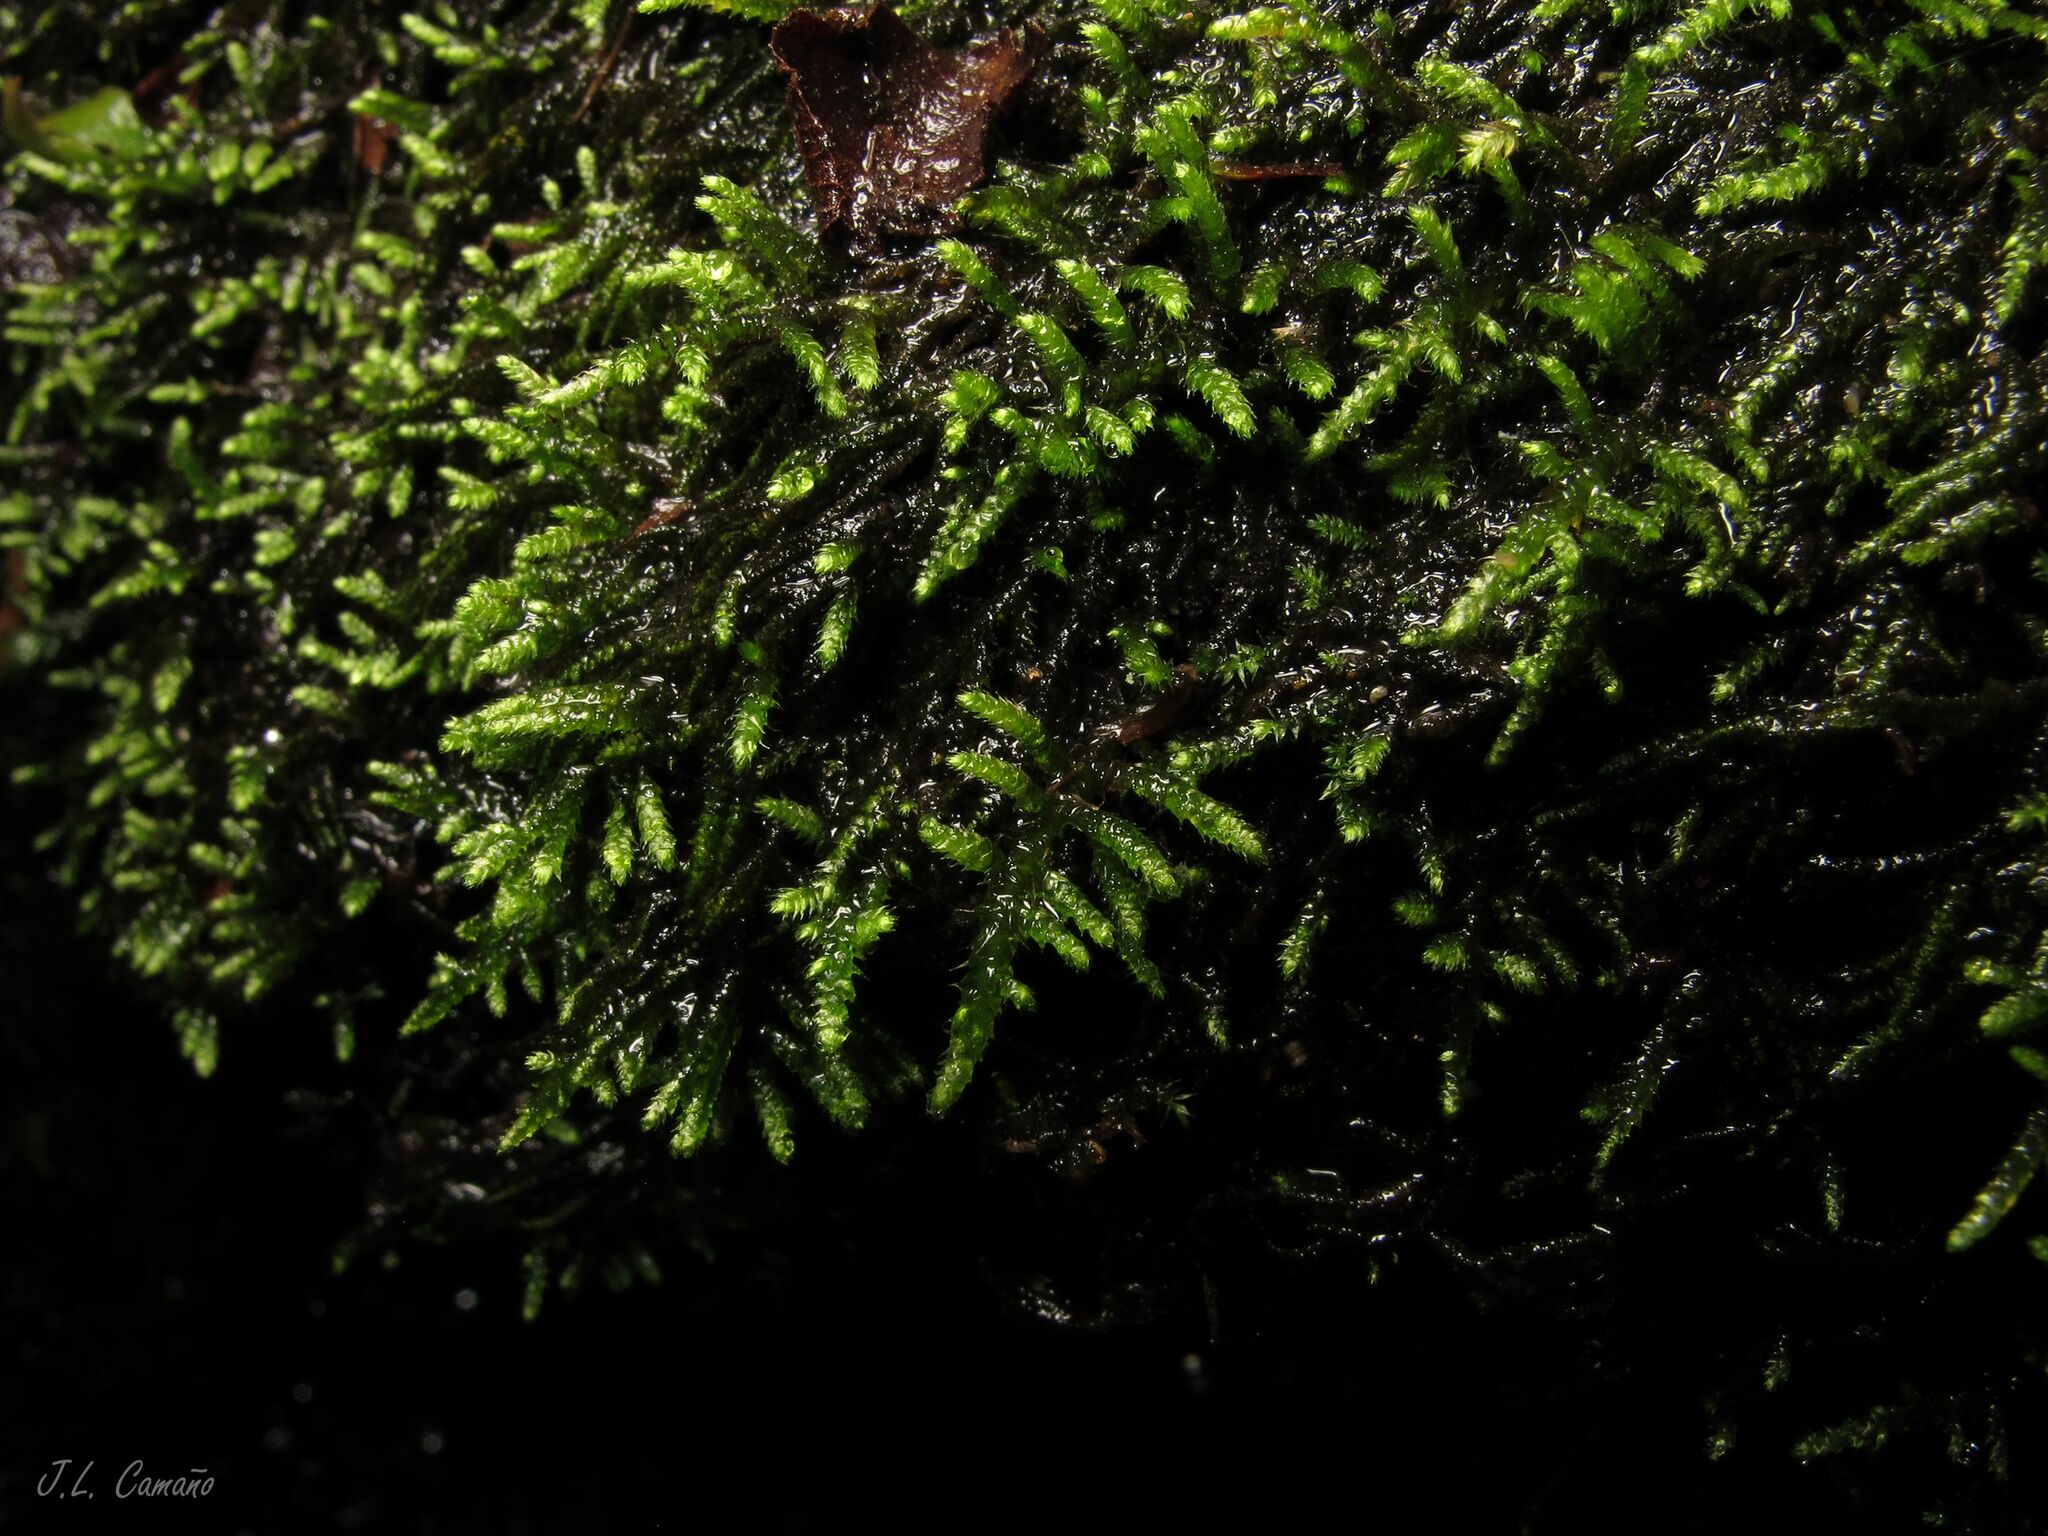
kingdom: Plantae
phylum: Bryophyta
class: Bryopsida
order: Hypnales
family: Myuriaceae
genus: Hyocomium
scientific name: Hyocomium armoricum
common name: Flagellate feather-moss
